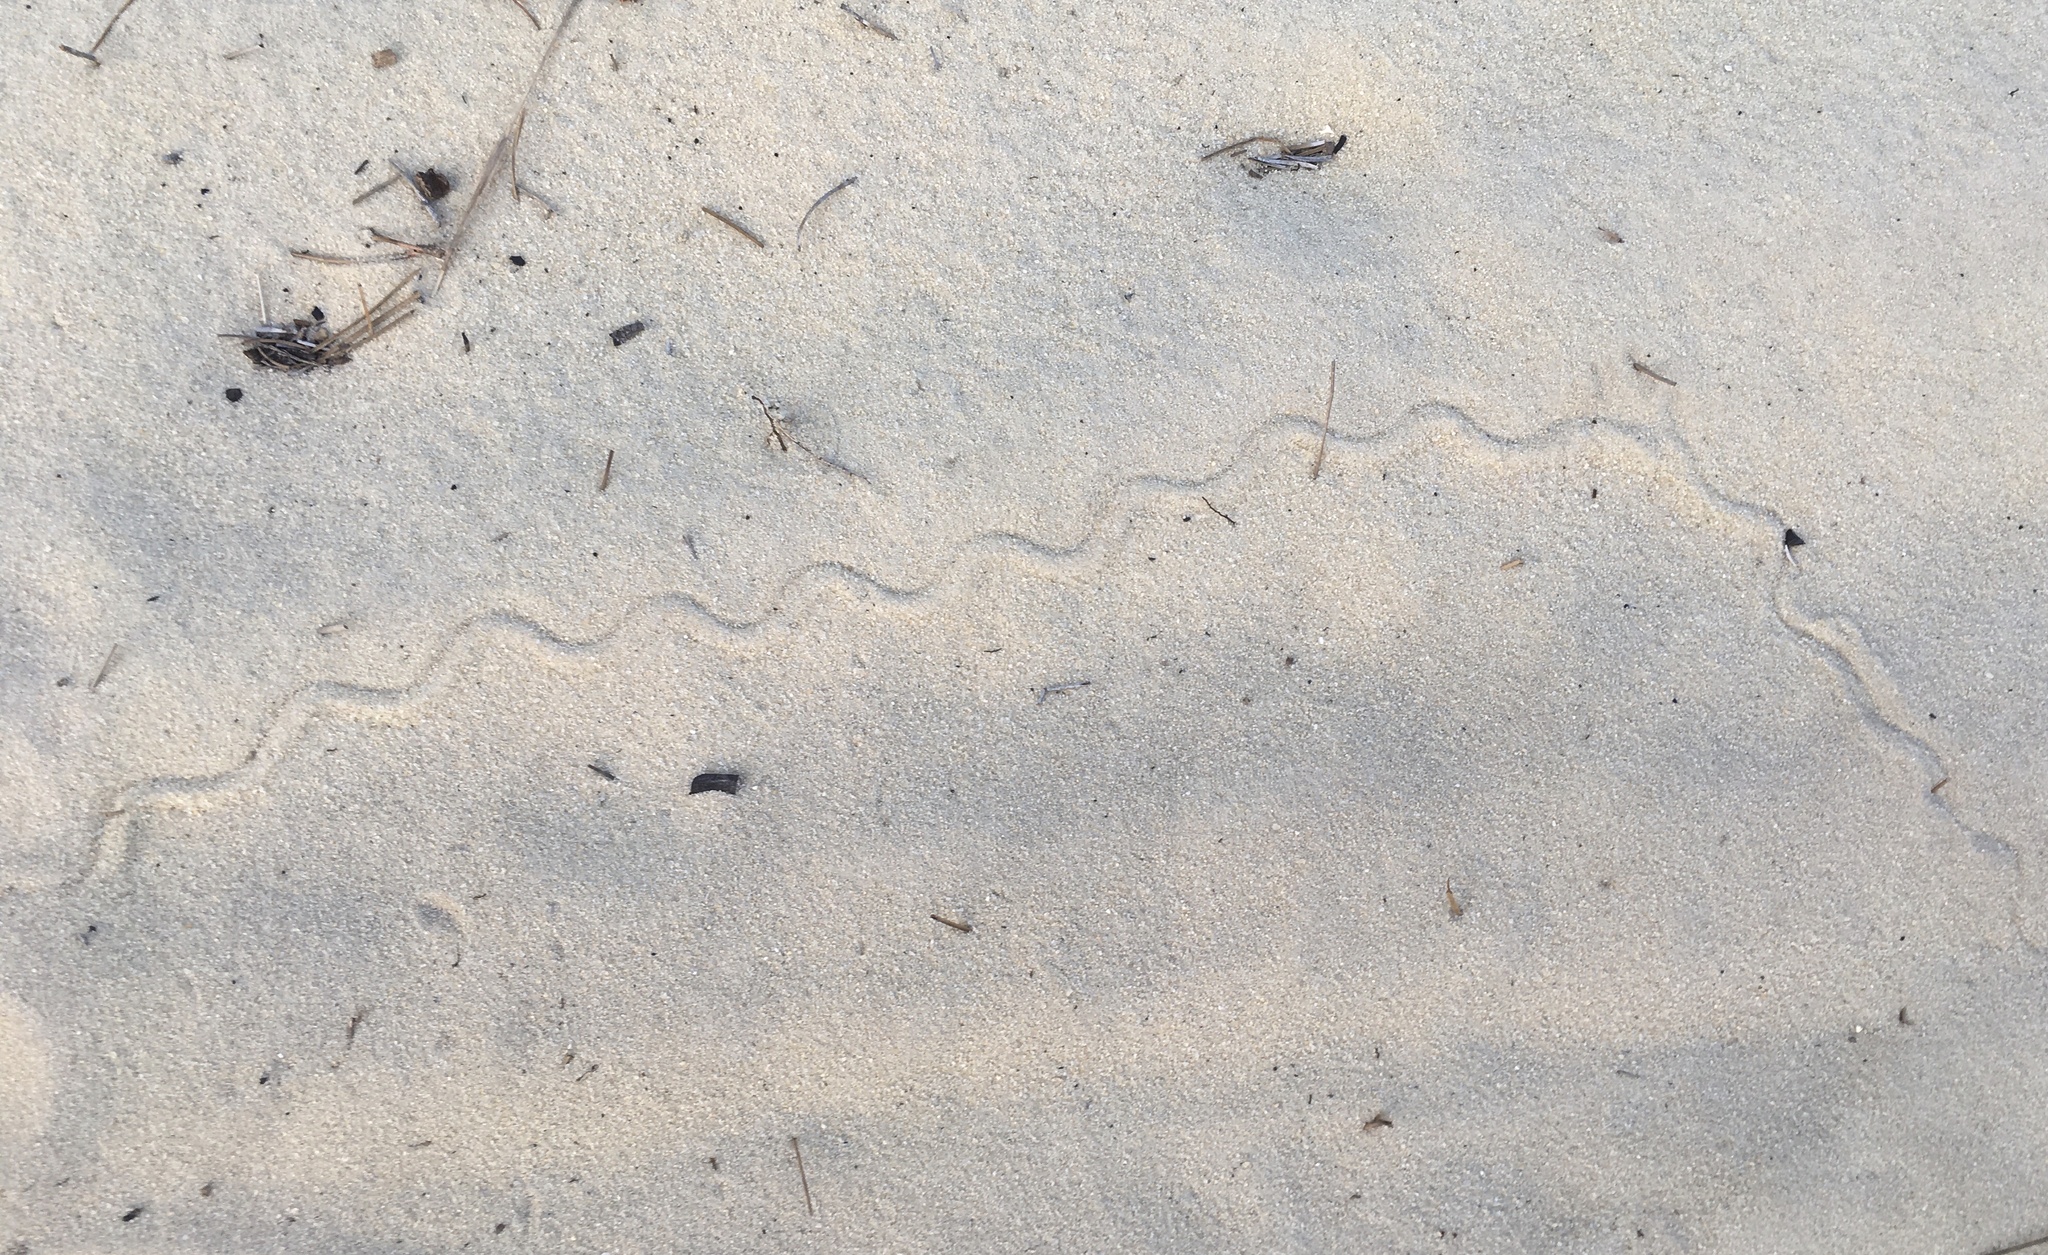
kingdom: Animalia
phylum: Chordata
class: Squamata
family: Scincidae
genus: Plestiodon
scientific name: Plestiodon reynoldsi
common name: Florida sand skink
